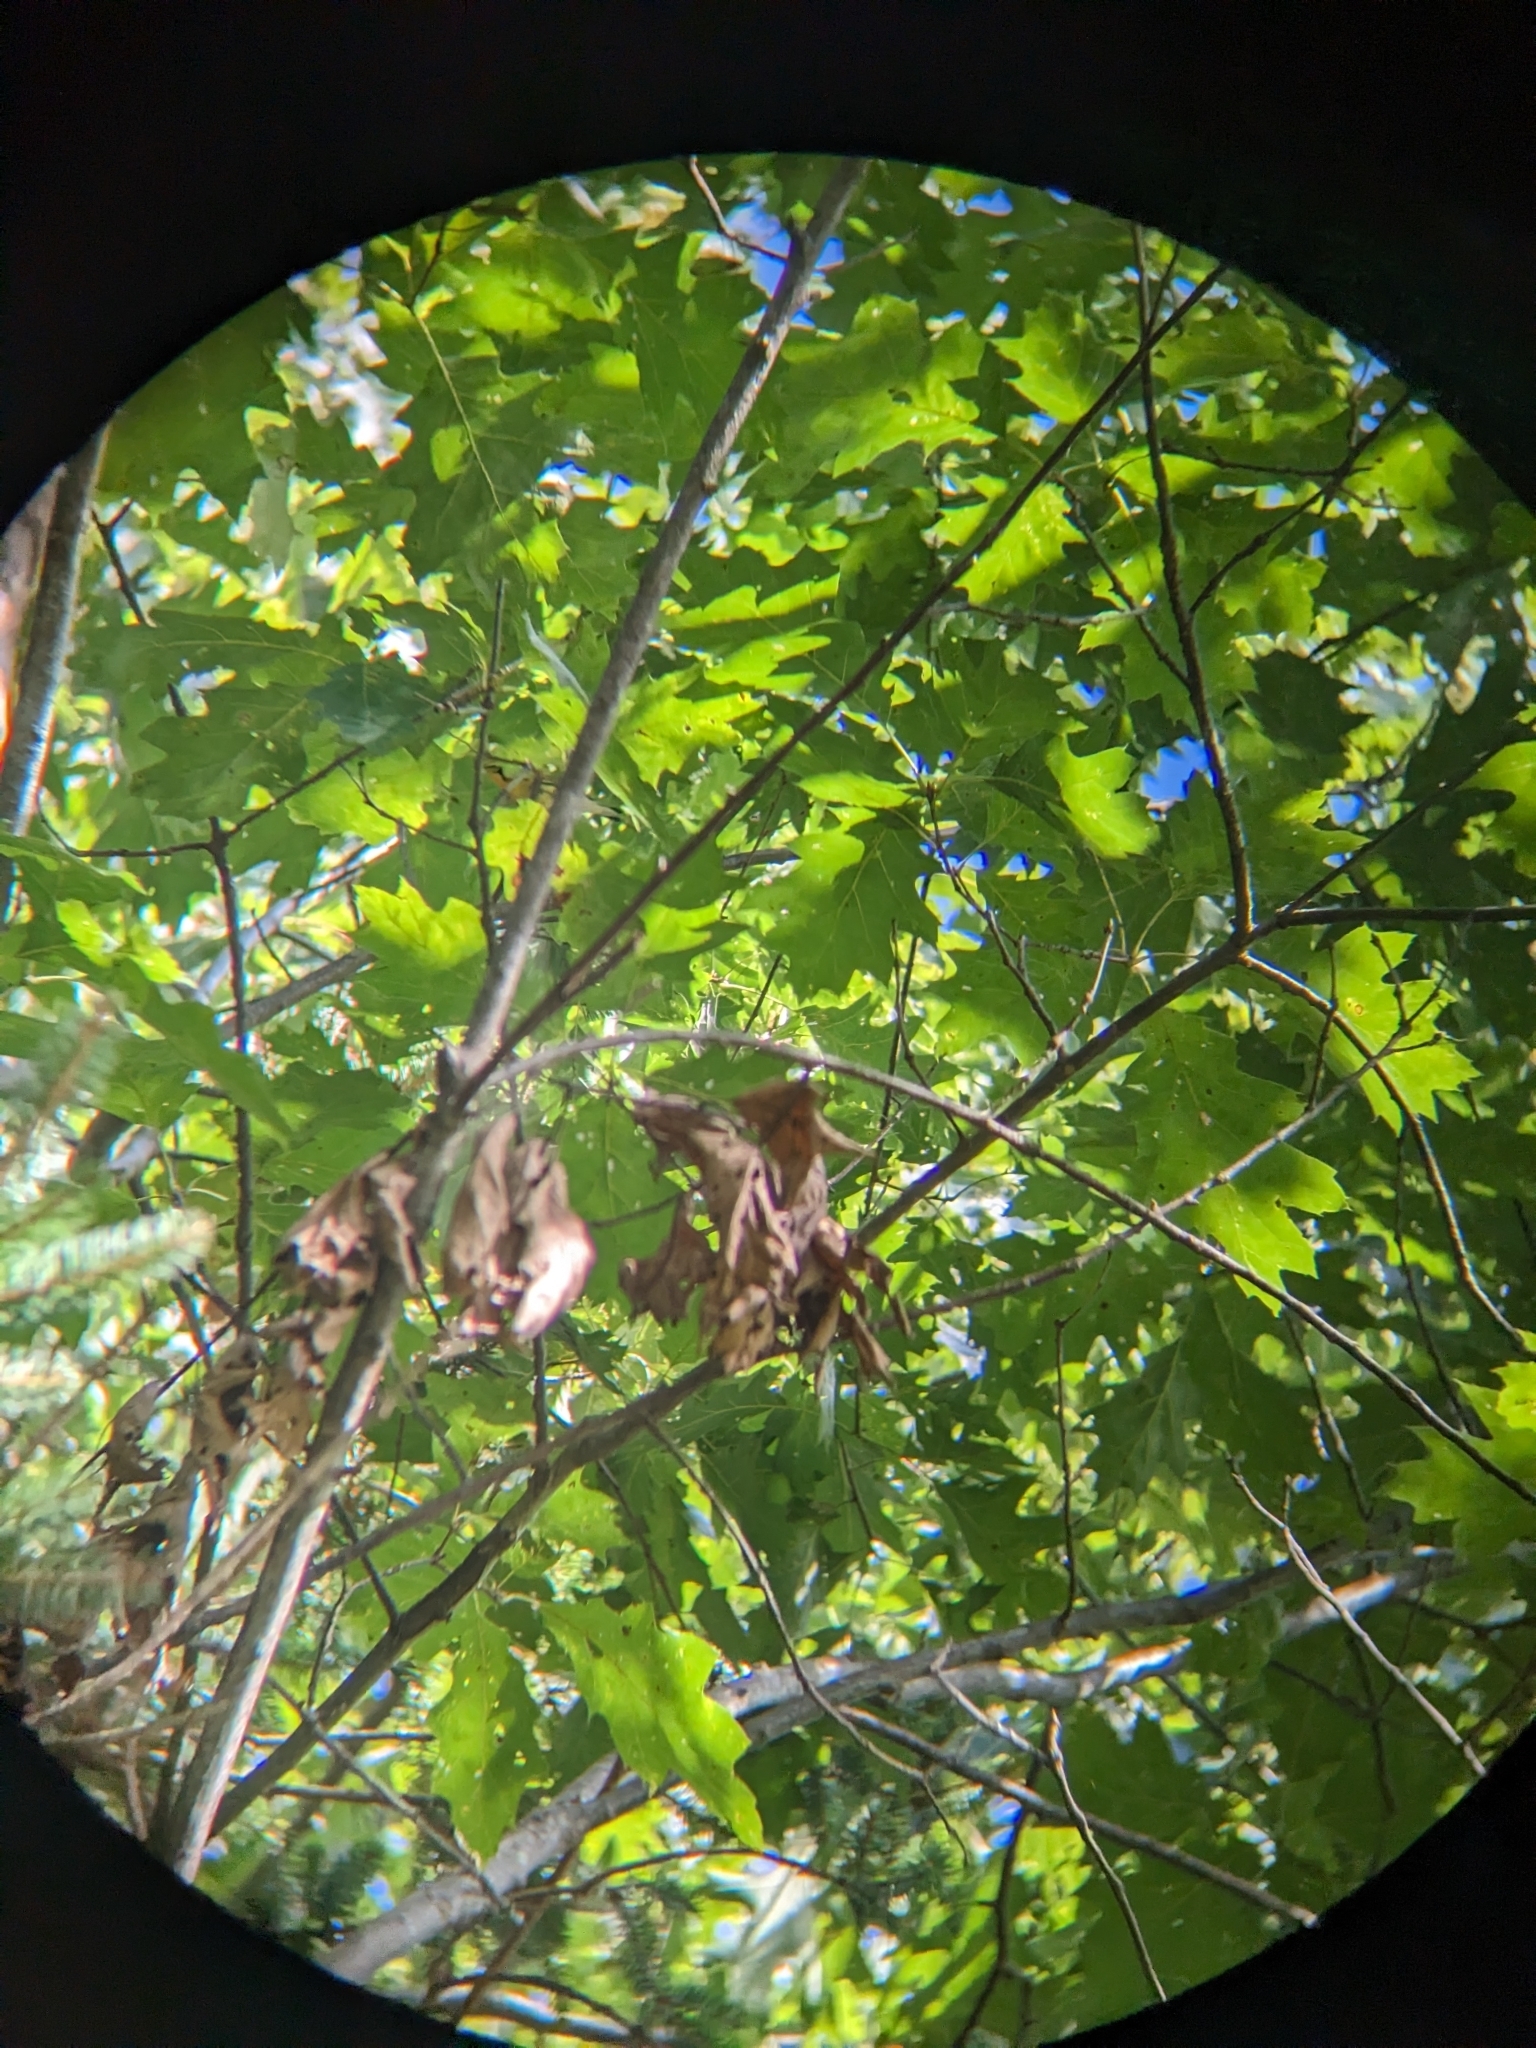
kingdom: Animalia
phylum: Chordata
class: Aves
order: Passeriformes
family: Parulidae
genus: Setophaga
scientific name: Setophaga fusca
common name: Blackburnian warbler
